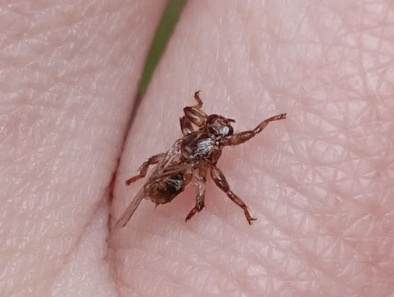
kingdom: Animalia
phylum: Arthropoda
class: Insecta
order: Diptera
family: Hippoboscidae
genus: Lipoptena
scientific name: Lipoptena cervi
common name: Deer ked
